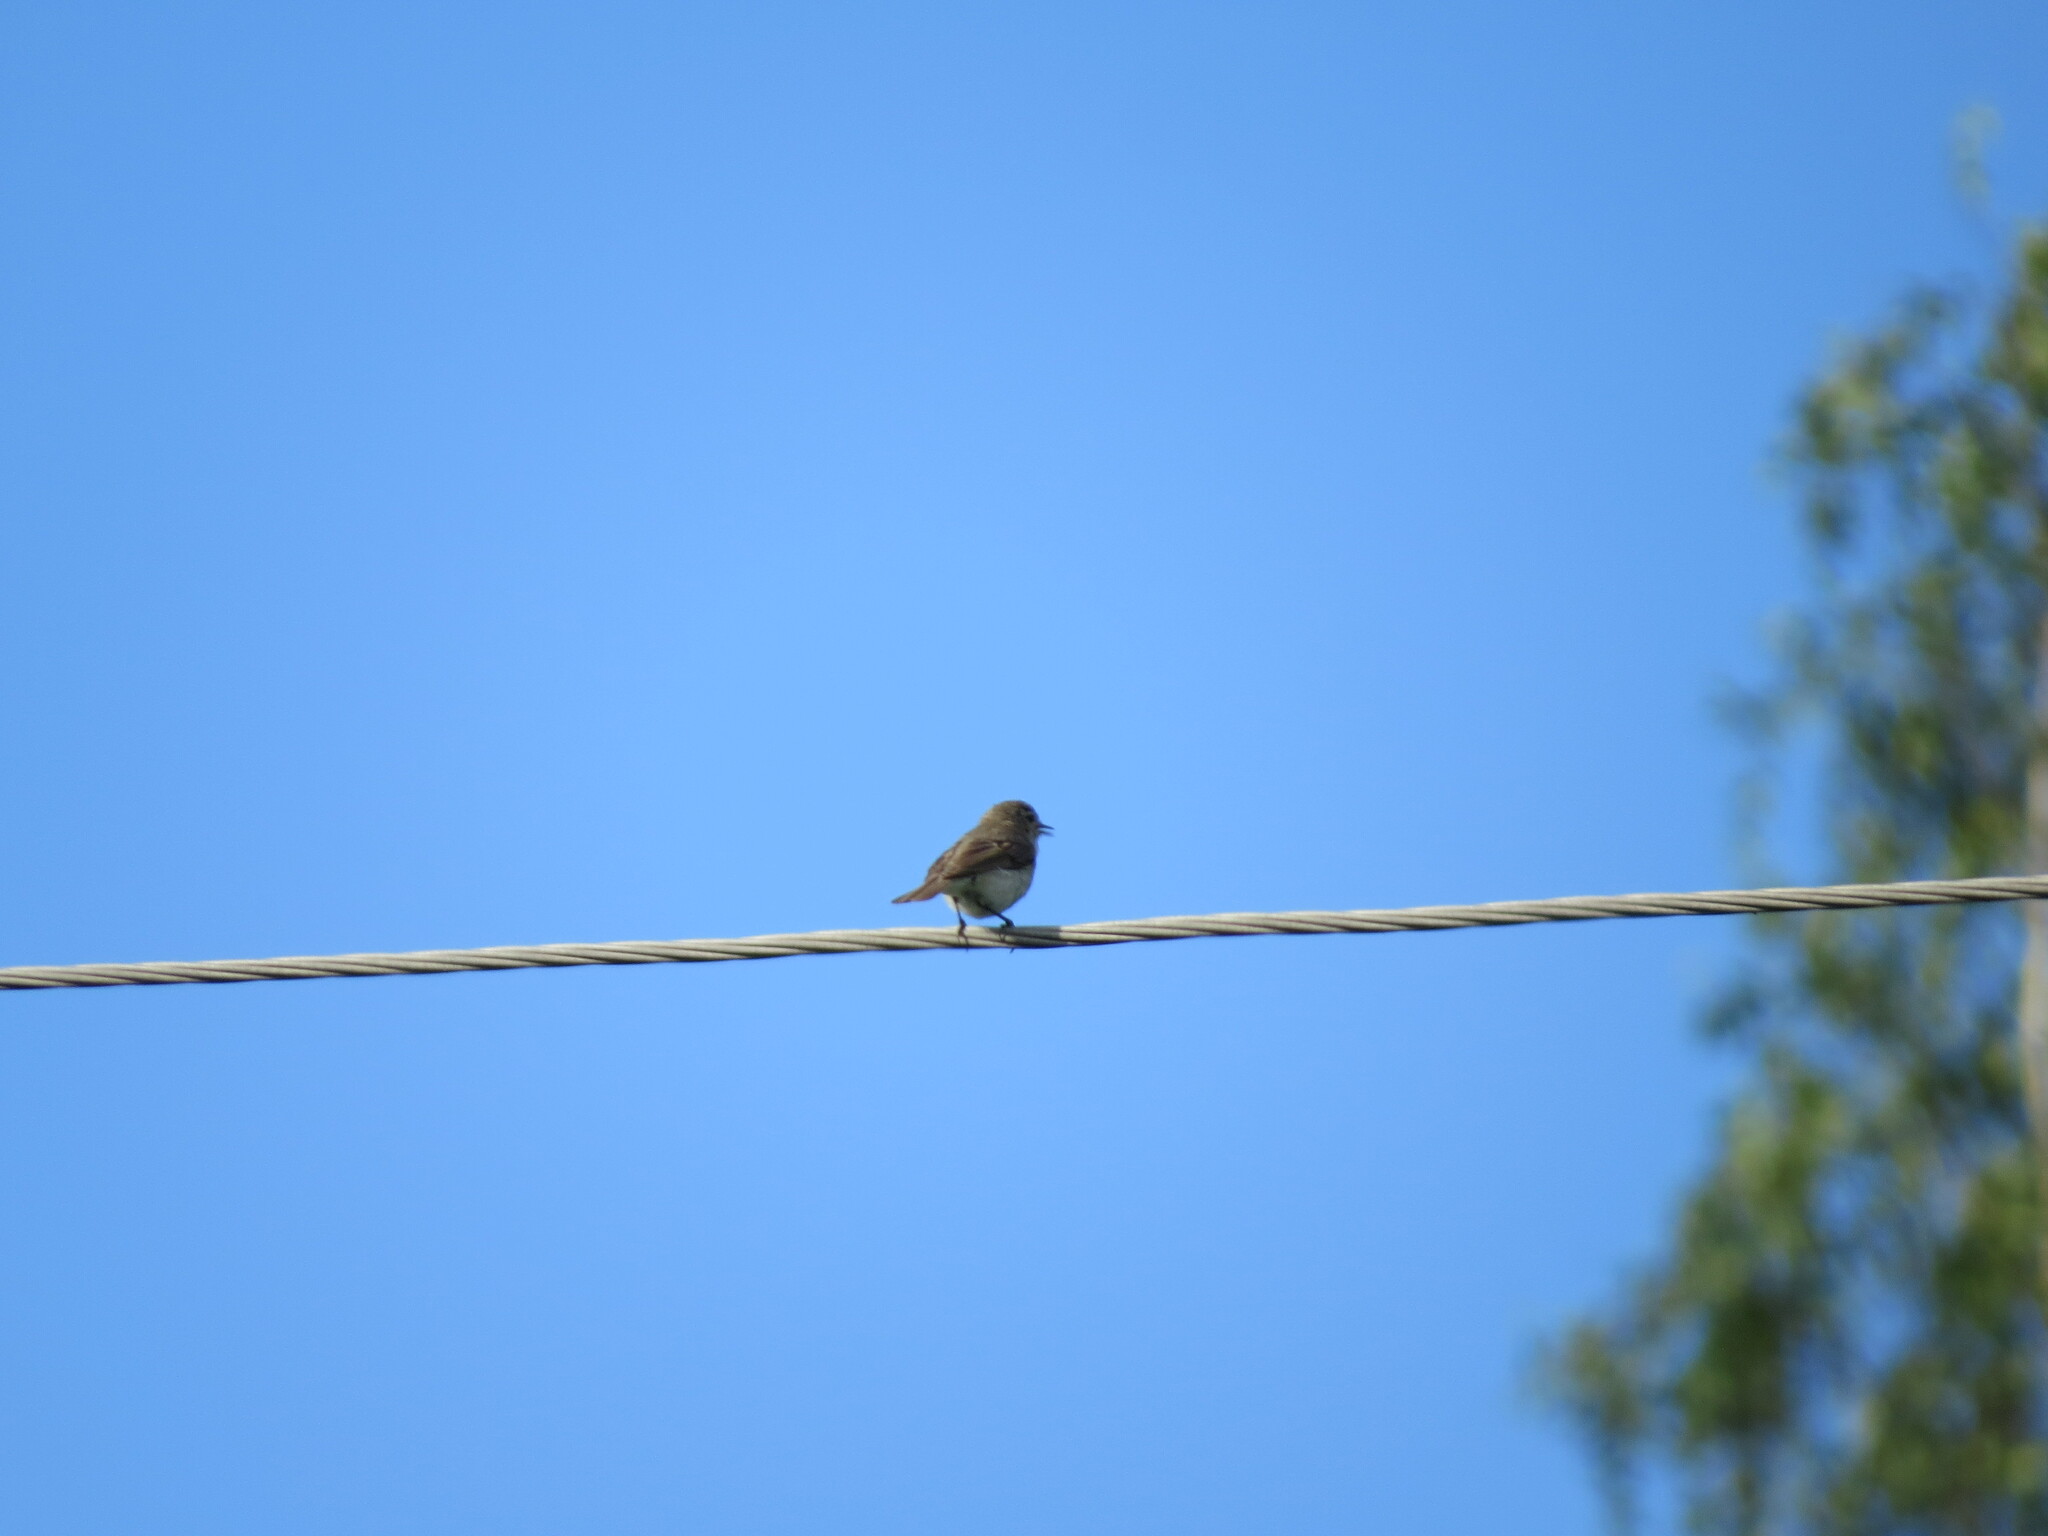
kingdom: Animalia
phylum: Chordata
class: Aves
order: Passeriformes
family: Phylloscopidae
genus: Phylloscopus
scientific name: Phylloscopus collybita
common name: Common chiffchaff
